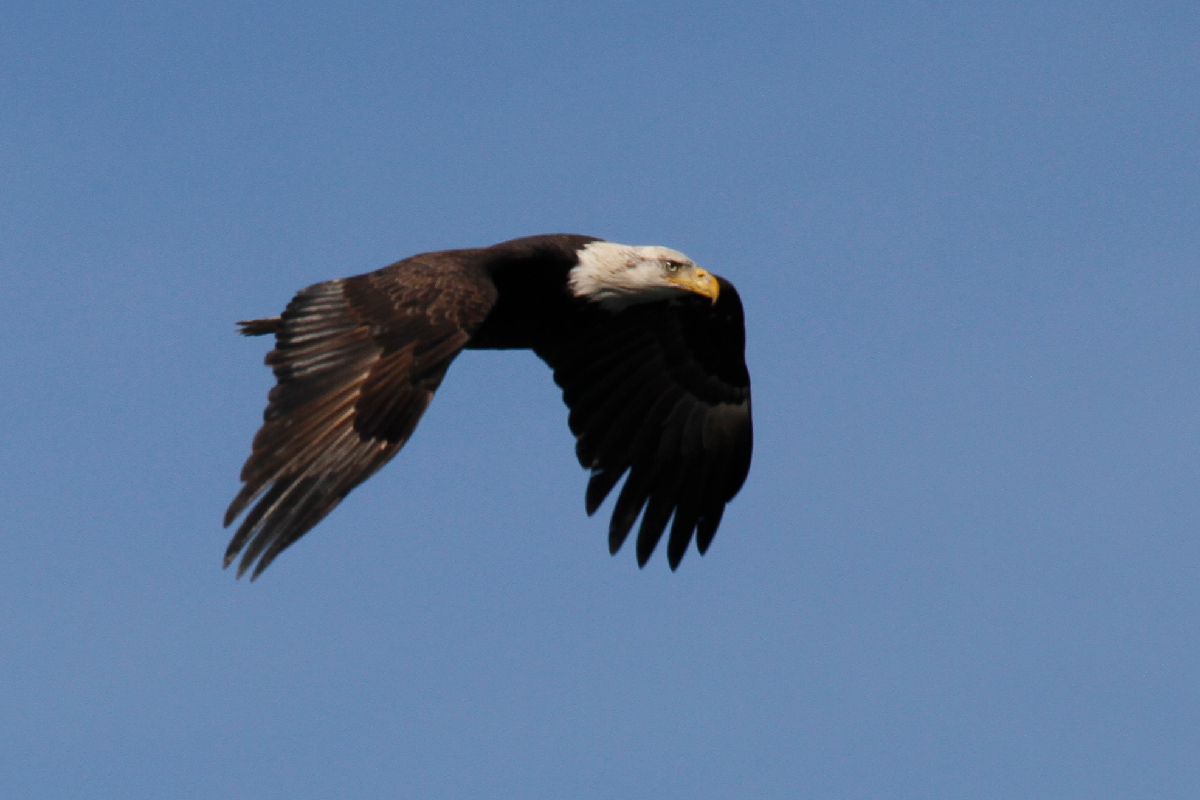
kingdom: Animalia
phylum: Chordata
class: Aves
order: Accipitriformes
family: Accipitridae
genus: Haliaeetus
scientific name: Haliaeetus leucocephalus
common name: Bald eagle
